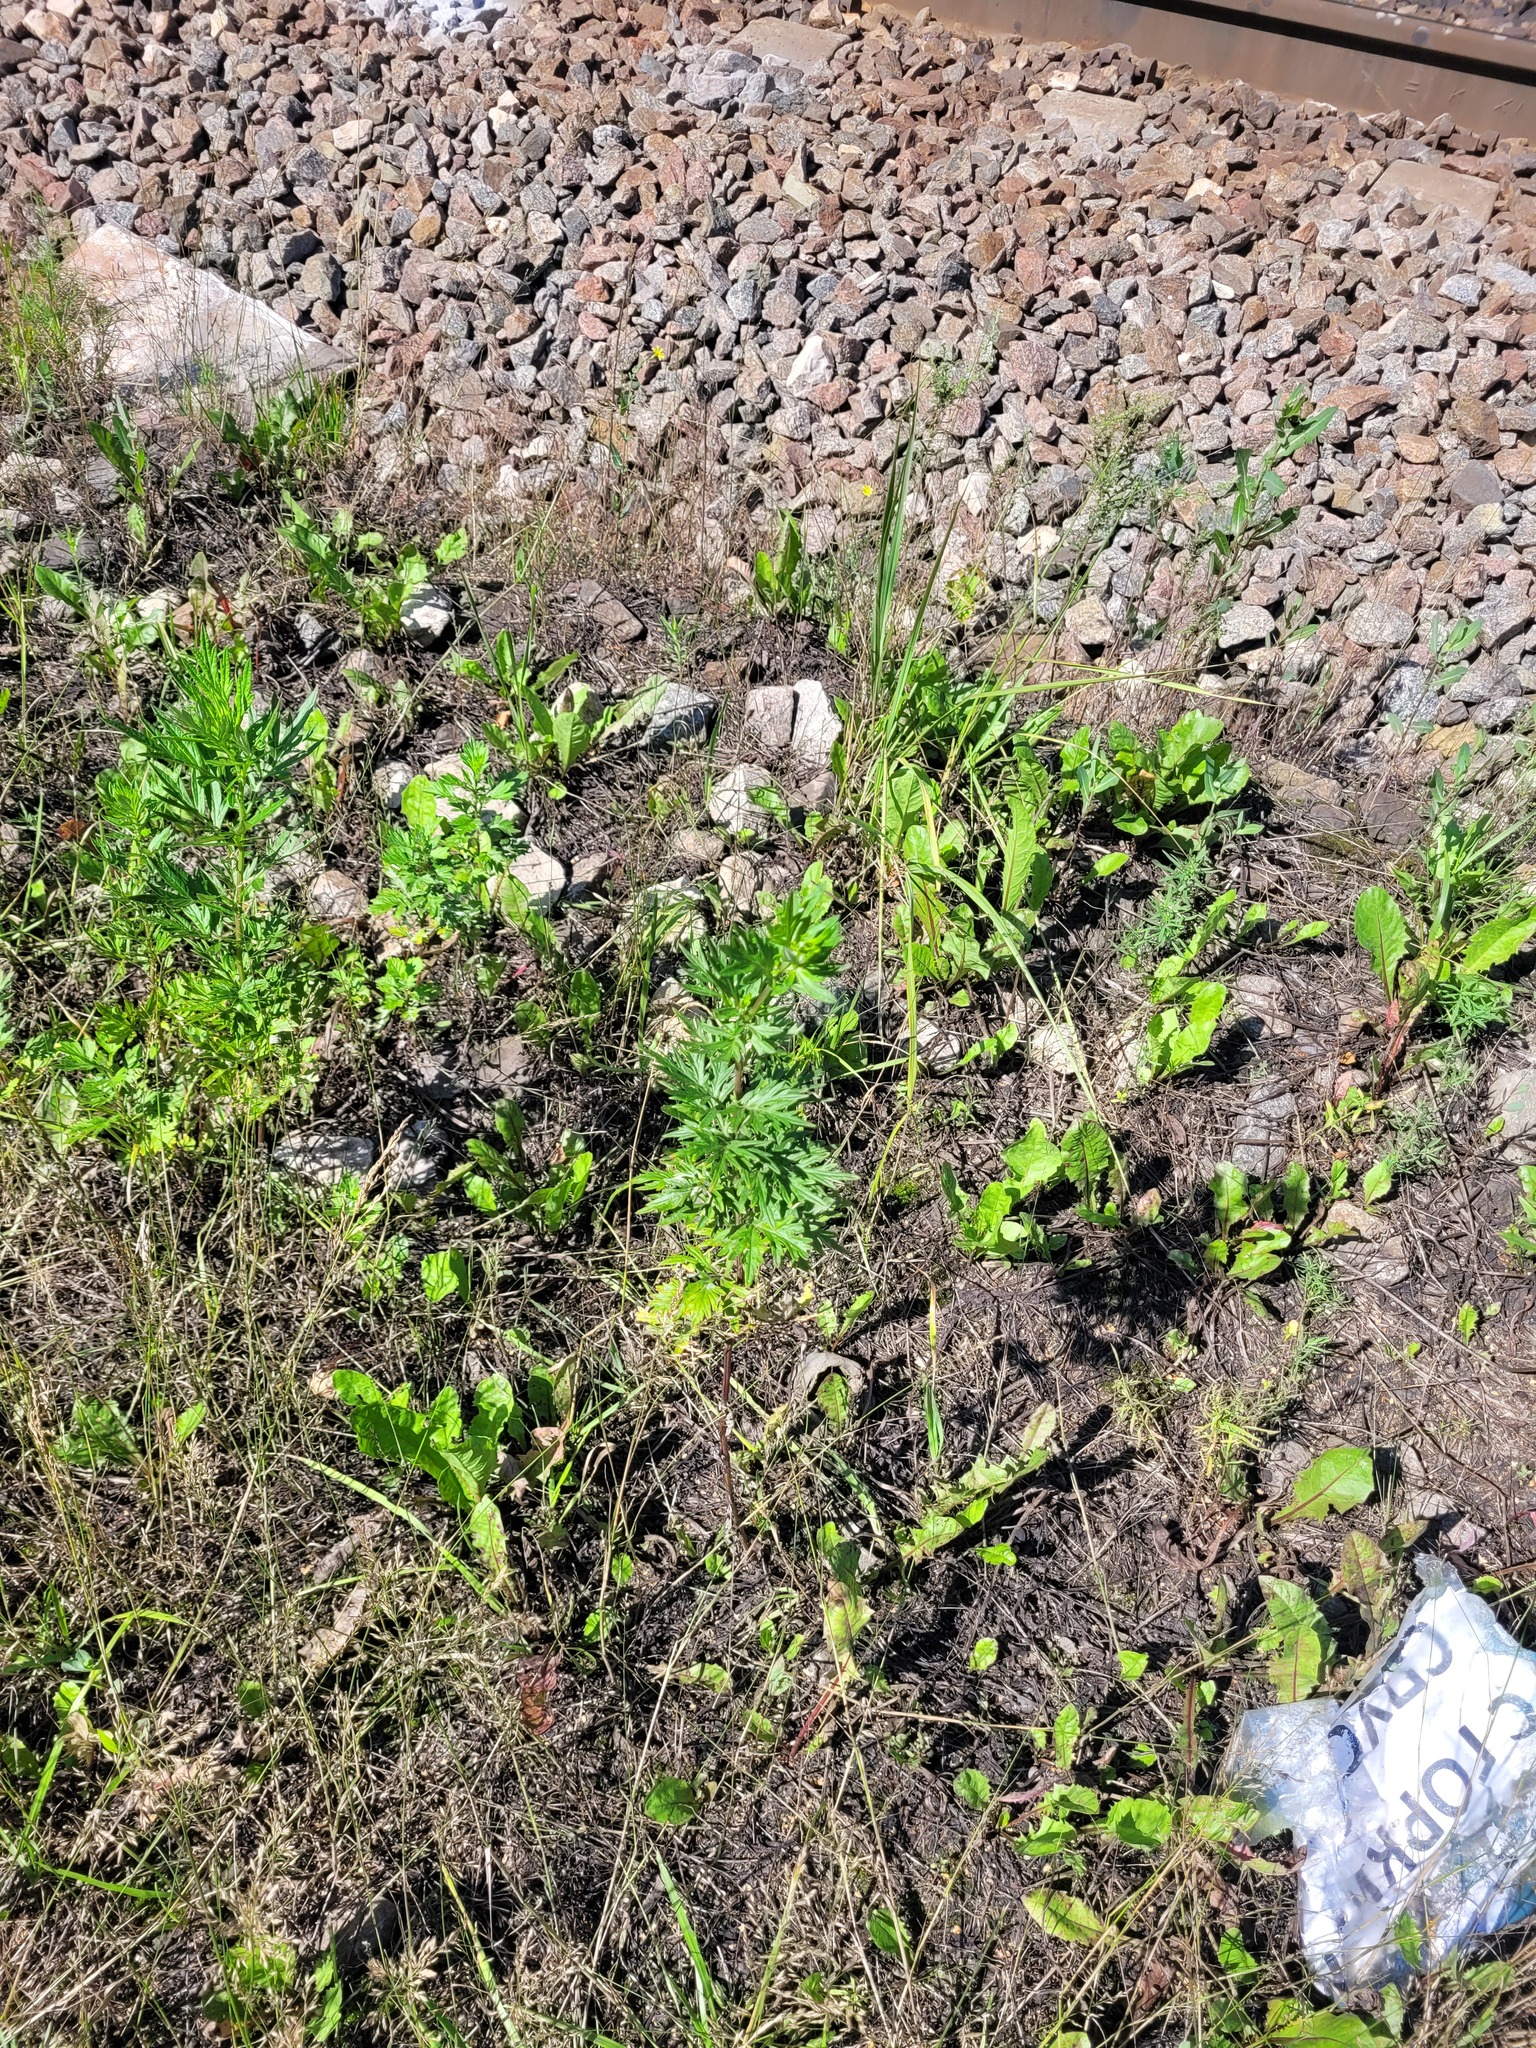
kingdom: Plantae
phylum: Tracheophyta
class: Magnoliopsida
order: Asterales
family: Asteraceae
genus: Artemisia
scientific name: Artemisia vulgaris
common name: Mugwort
